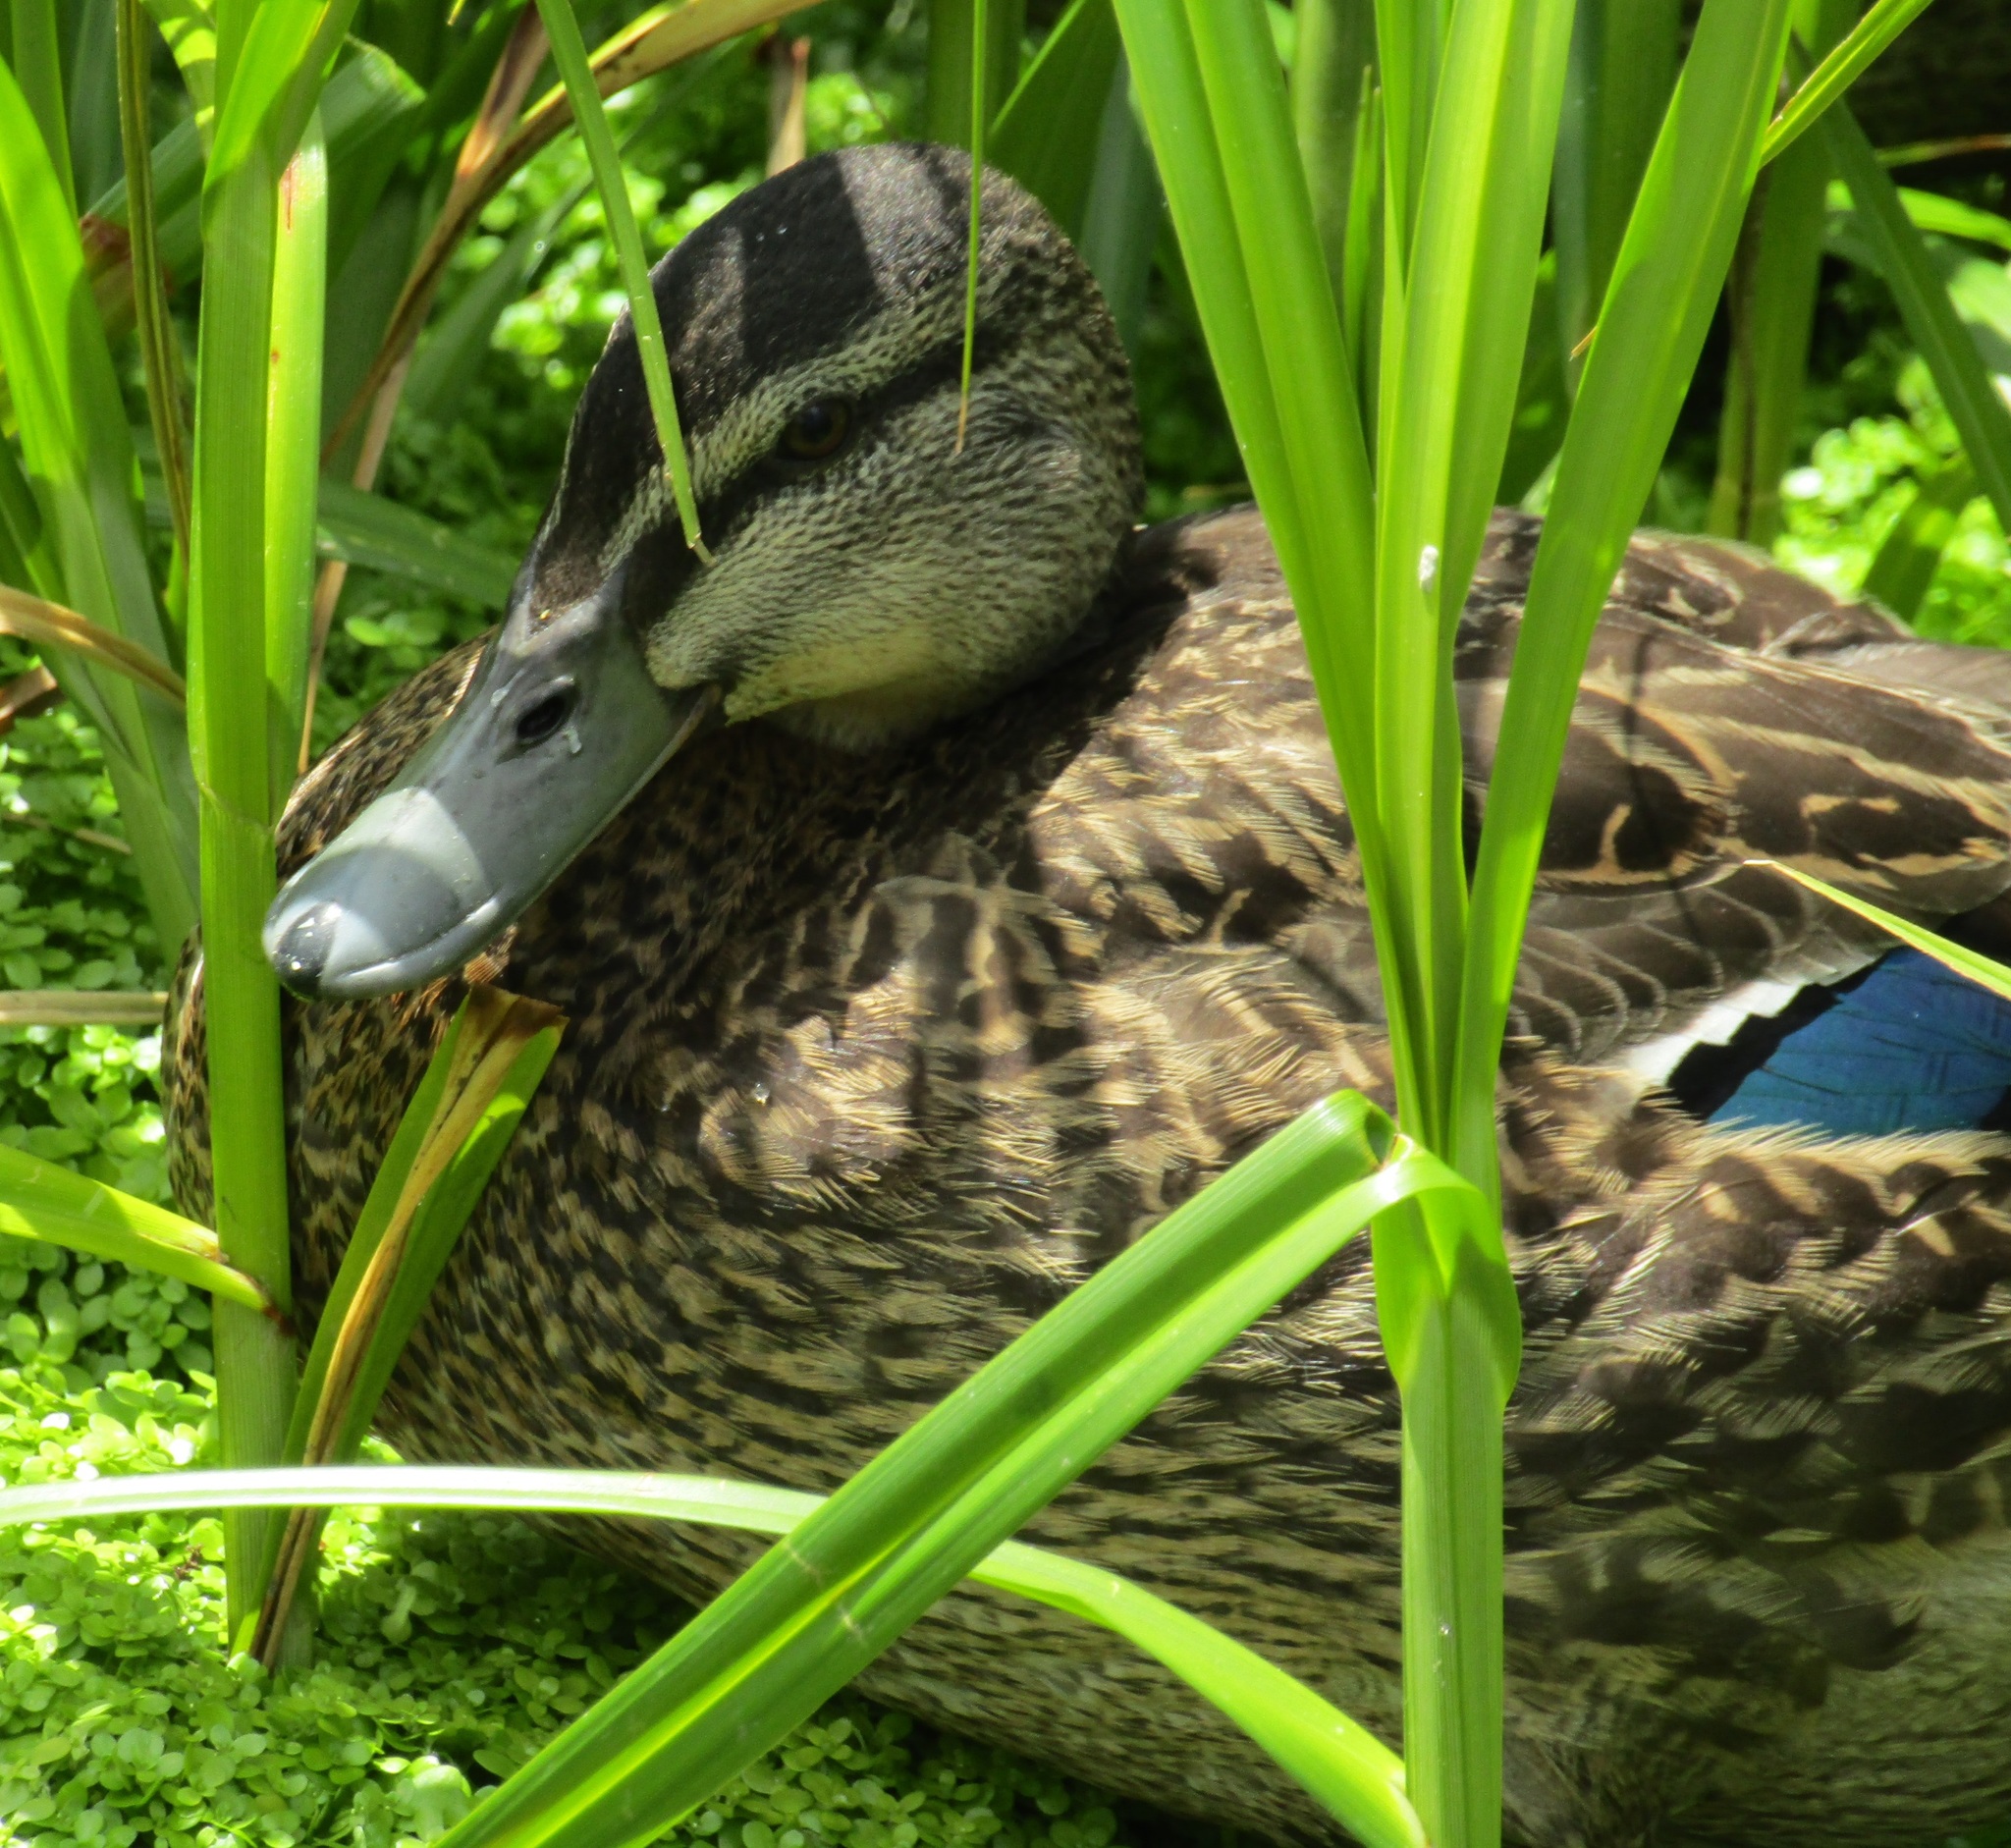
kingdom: Animalia
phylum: Chordata
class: Aves
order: Anseriformes
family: Anatidae
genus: Anas
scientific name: Anas
